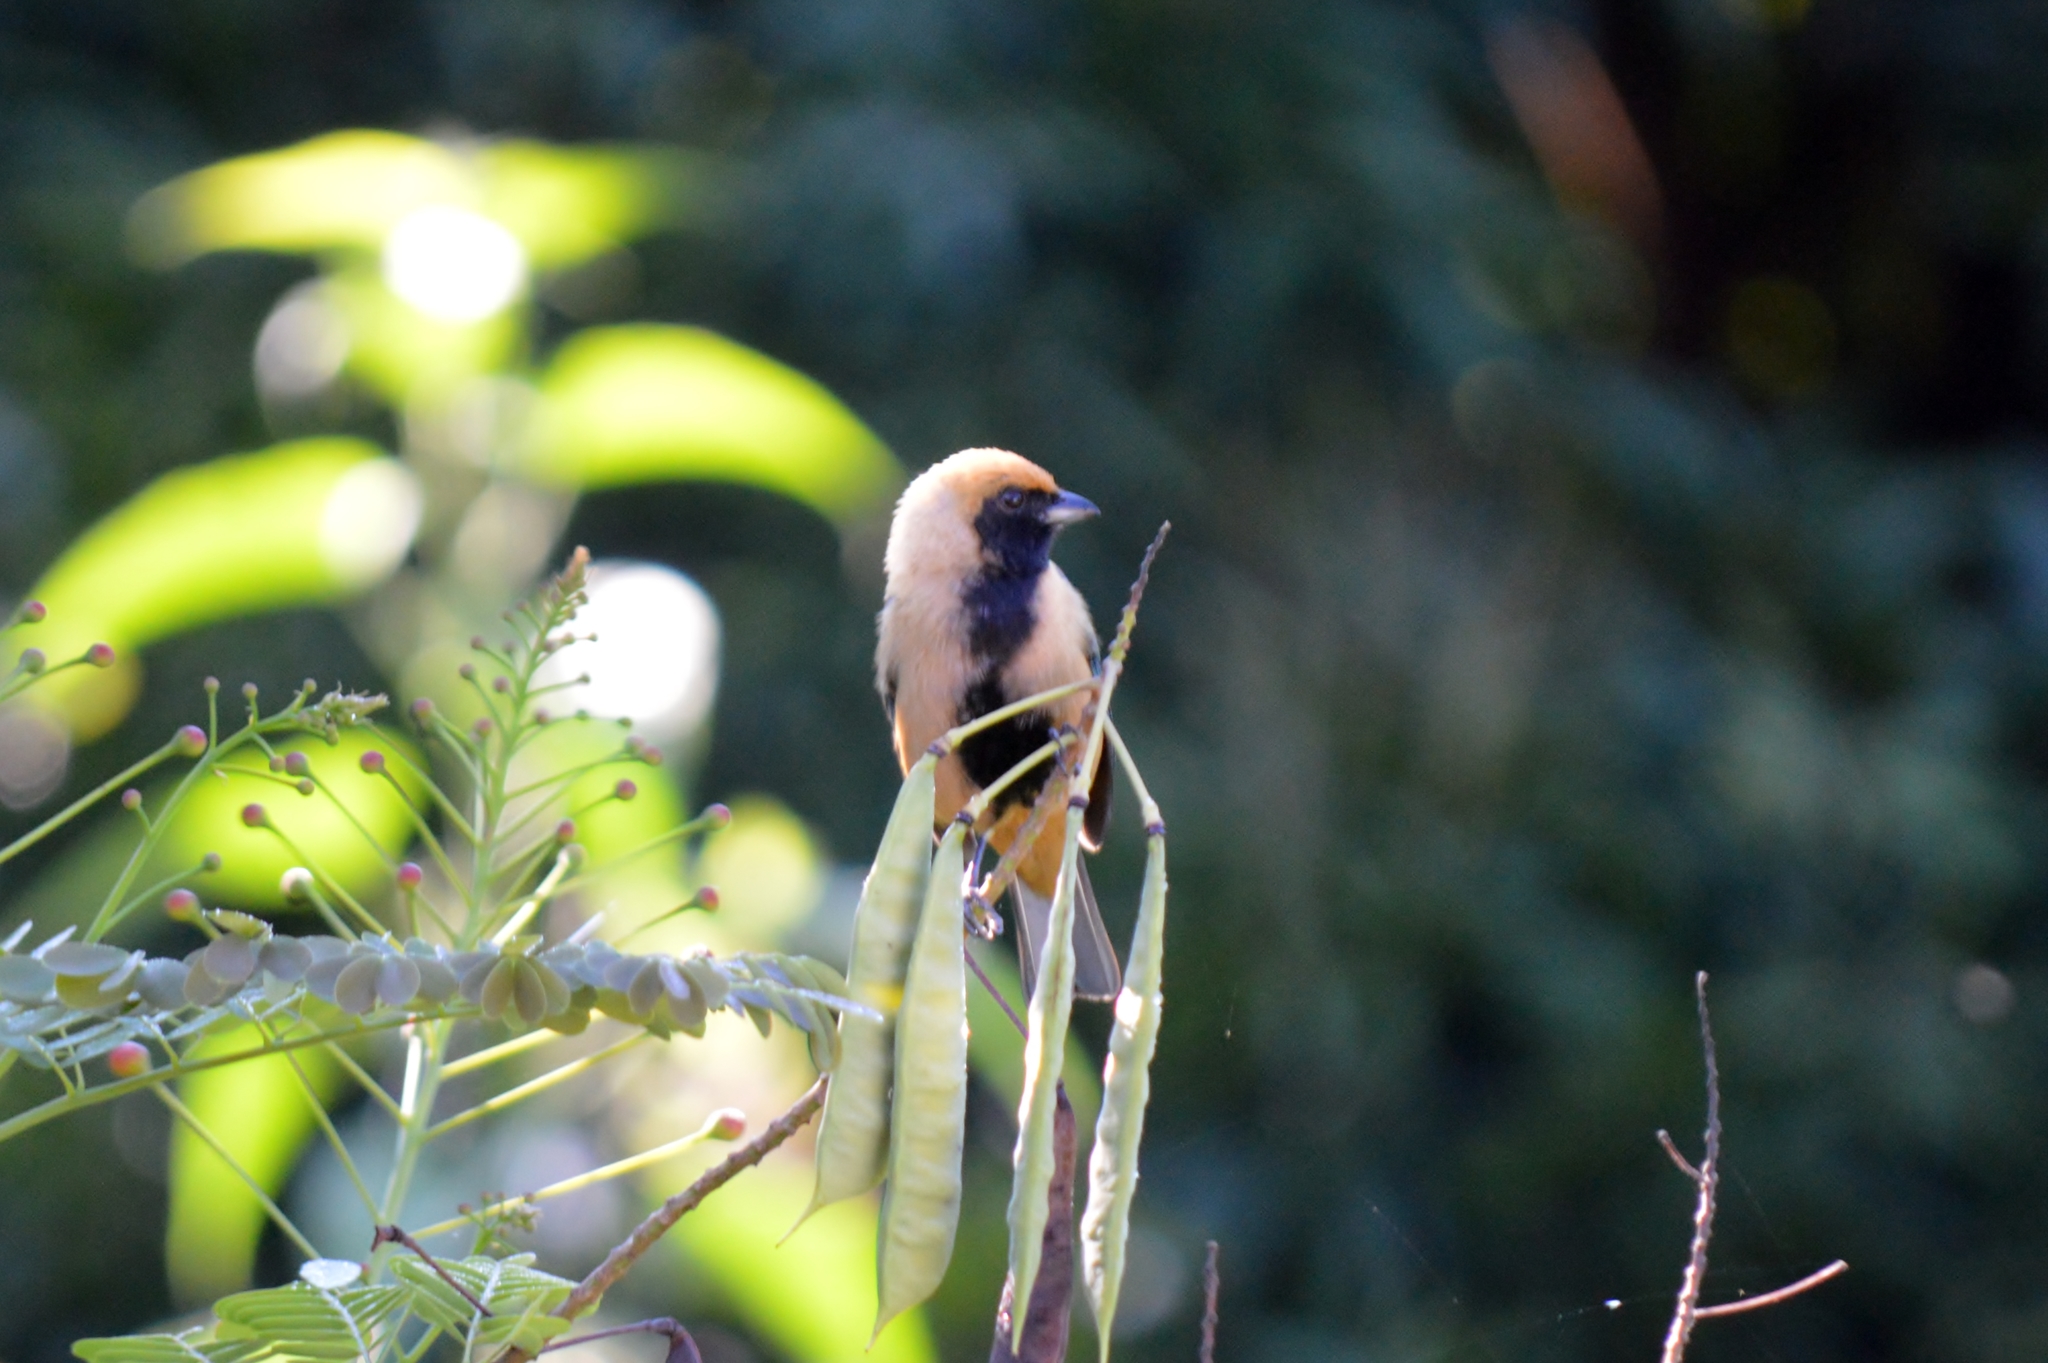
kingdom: Animalia
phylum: Chordata
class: Aves
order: Passeriformes
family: Thraupidae
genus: Stilpnia
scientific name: Stilpnia cayana
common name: Burnished-buff tanager
